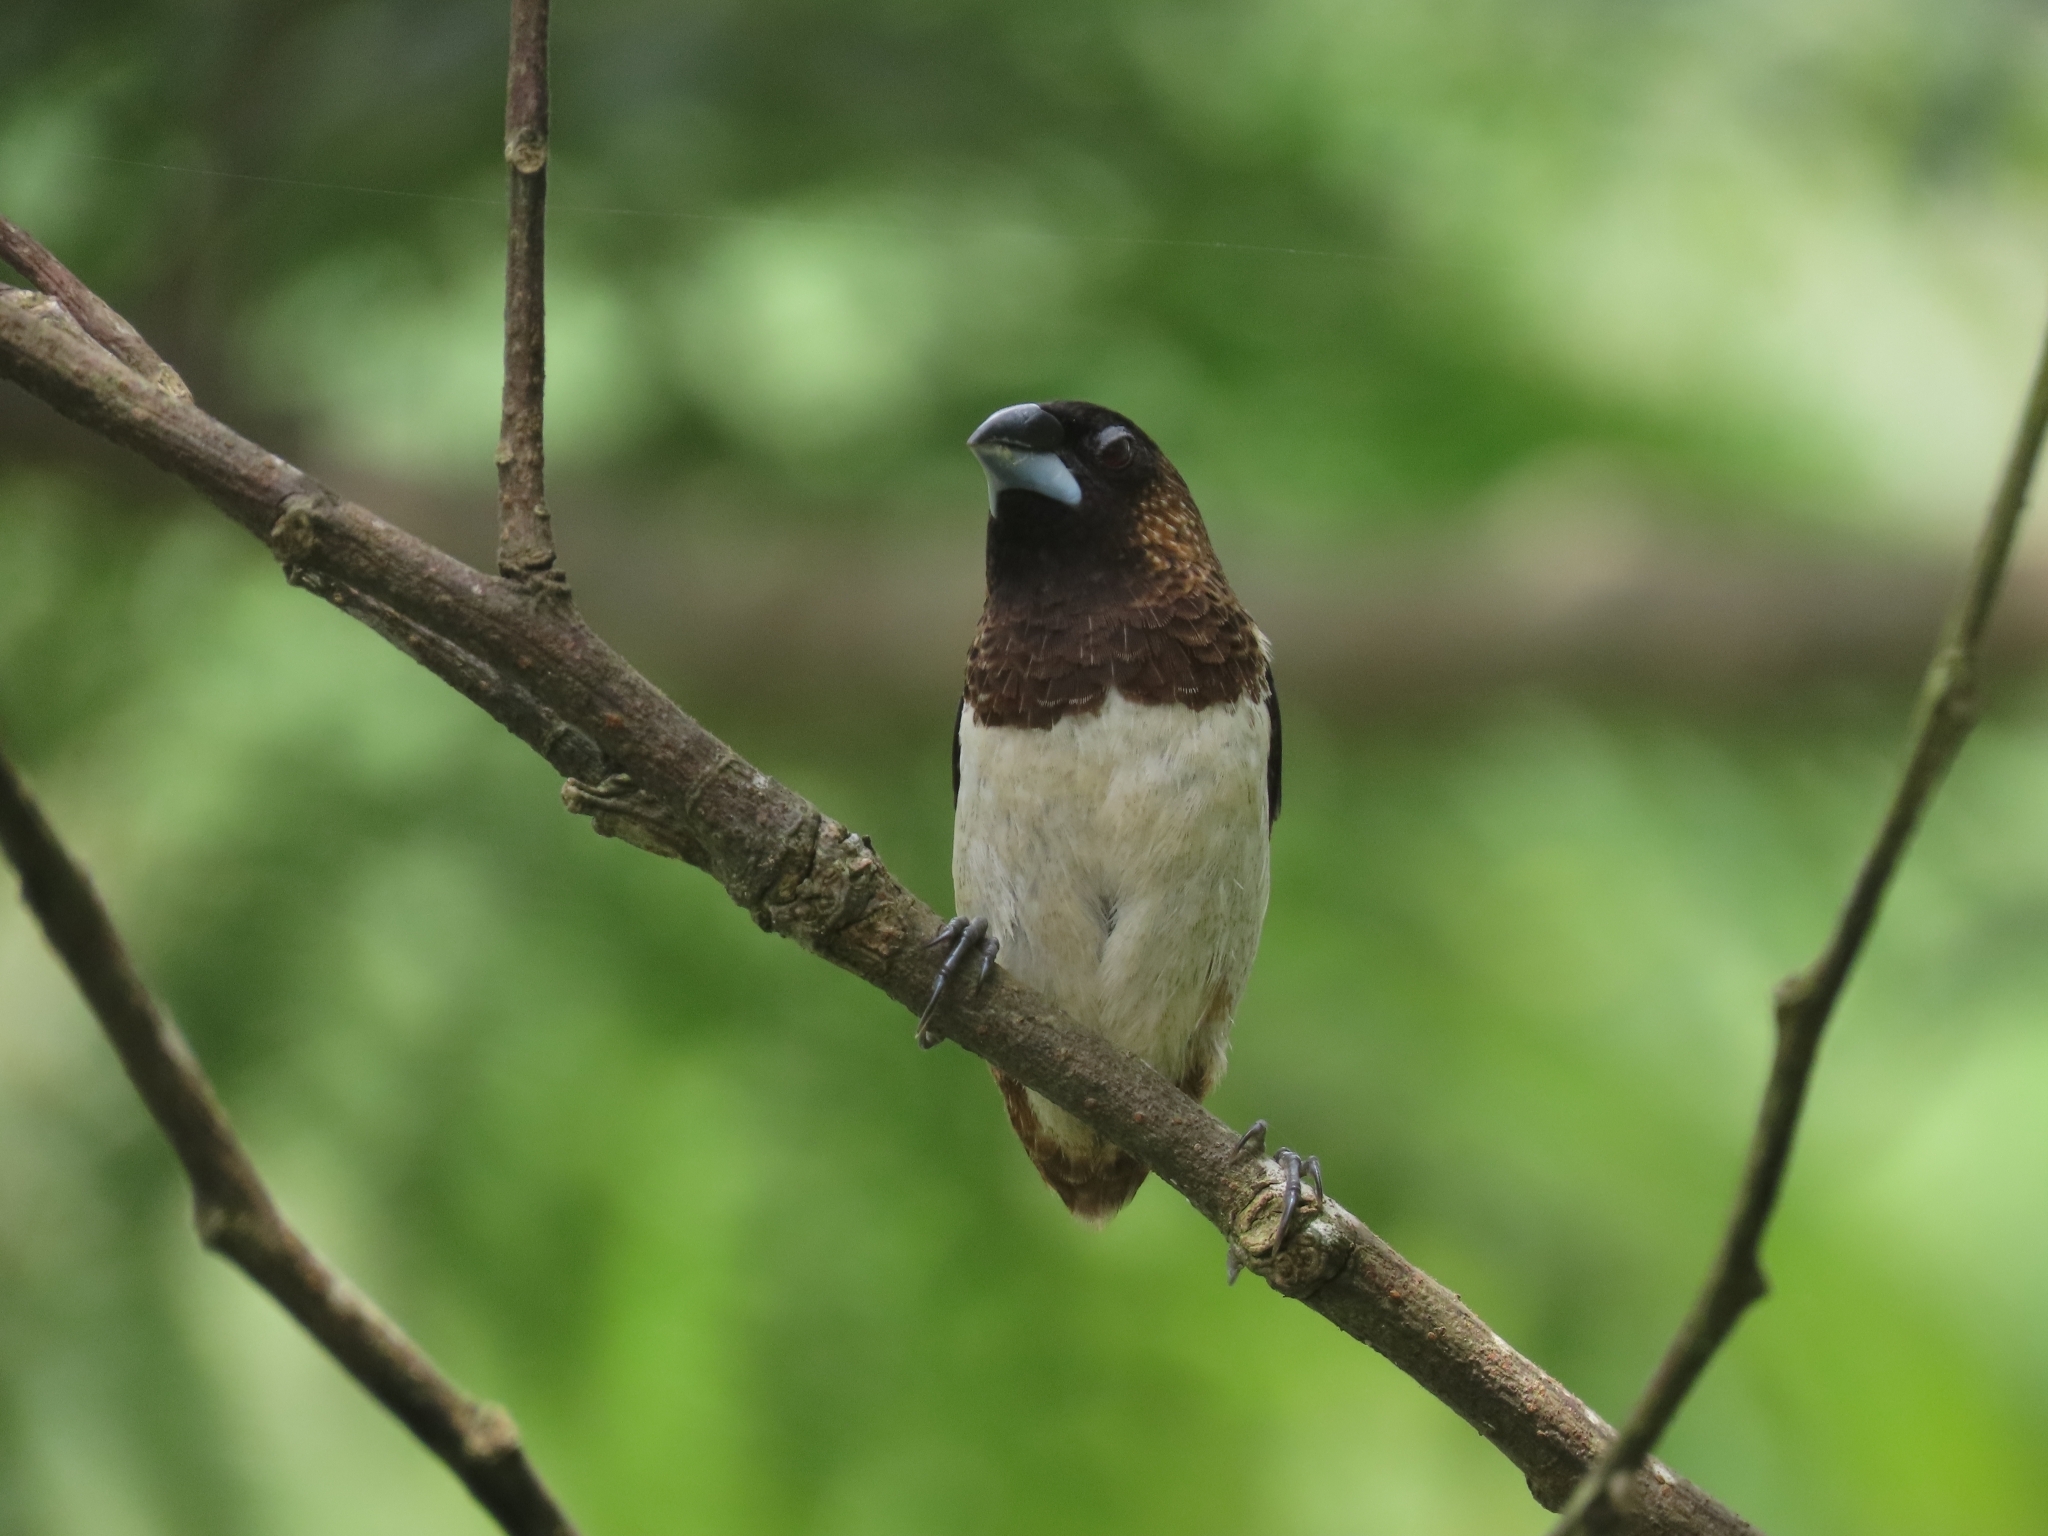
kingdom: Animalia
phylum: Chordata
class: Aves
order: Passeriformes
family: Estrildidae
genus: Lonchura
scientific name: Lonchura striata
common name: White-rumped munia
